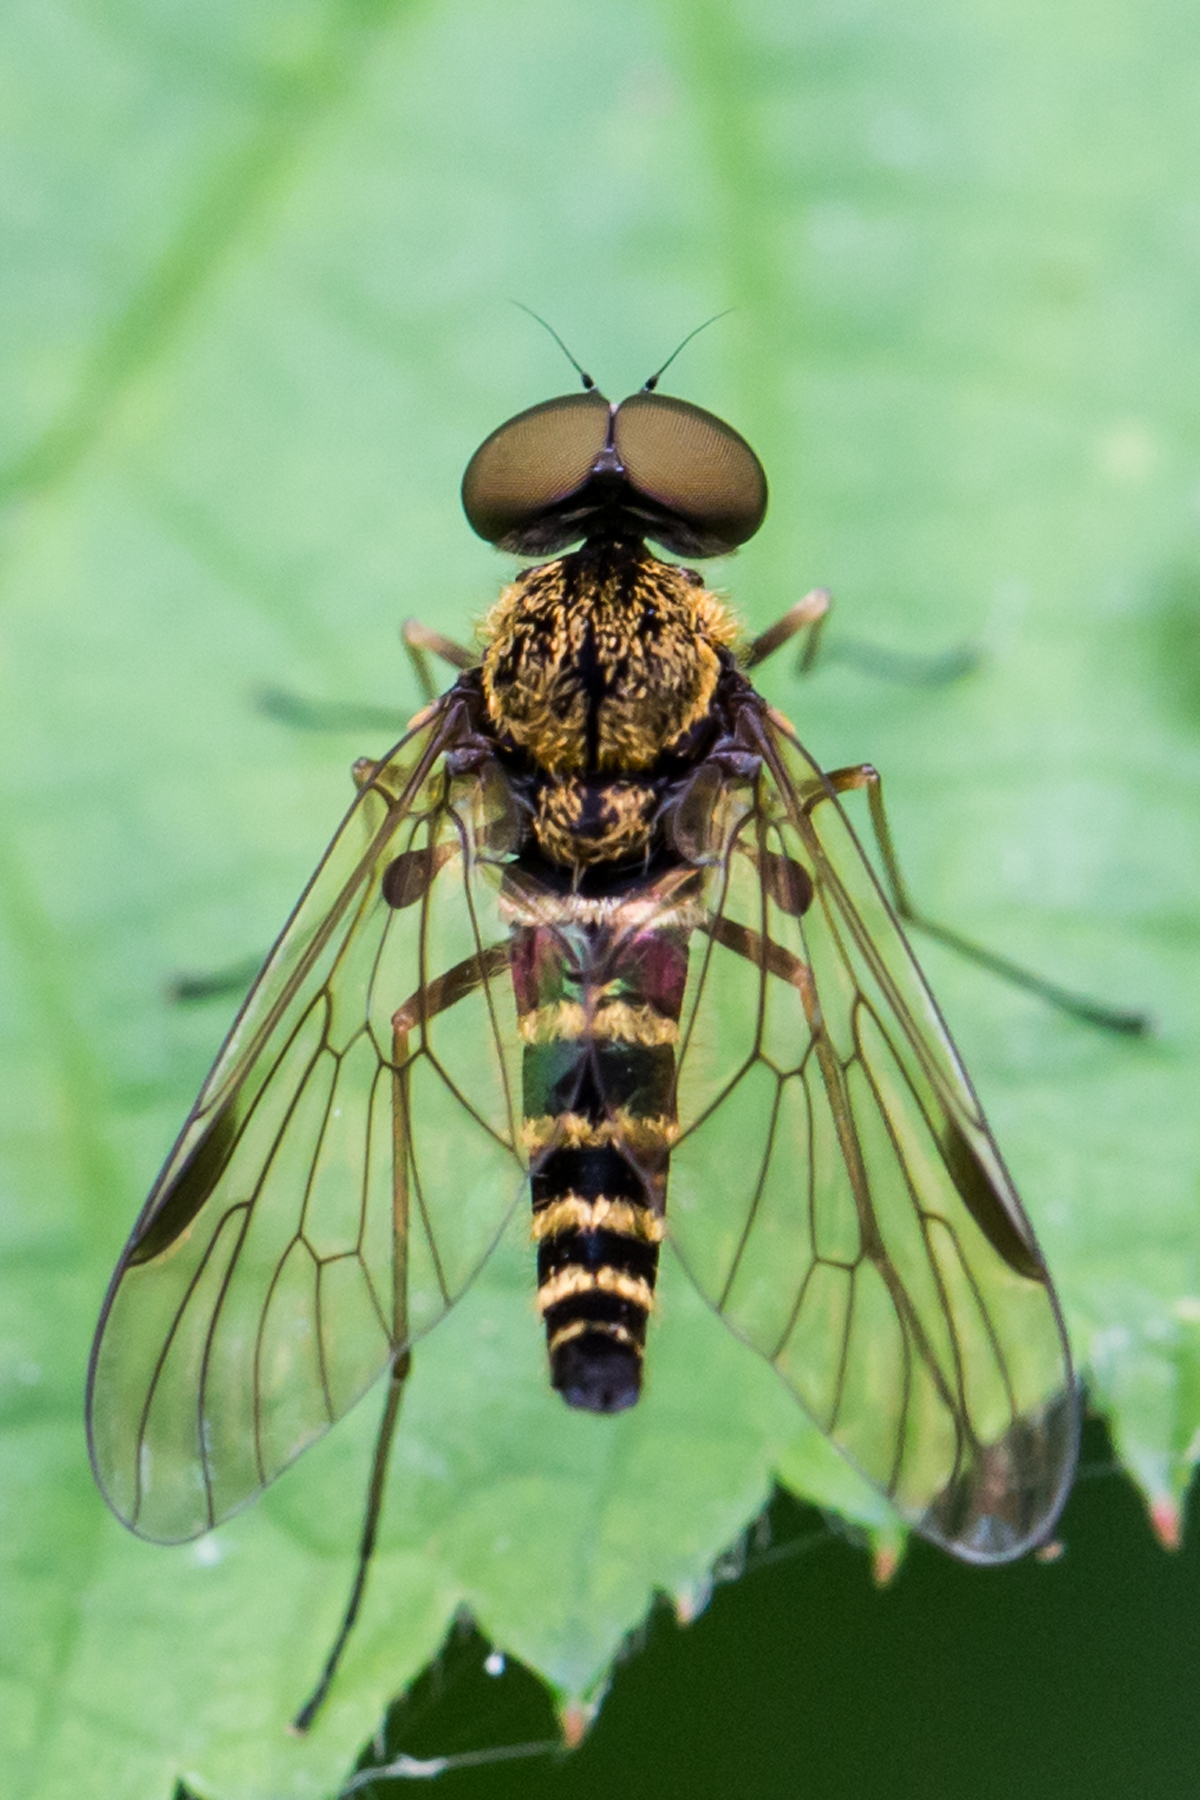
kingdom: Animalia
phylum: Arthropoda
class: Insecta
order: Diptera
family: Rhagionidae
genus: Chrysopilus
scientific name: Chrysopilus fasciatus
